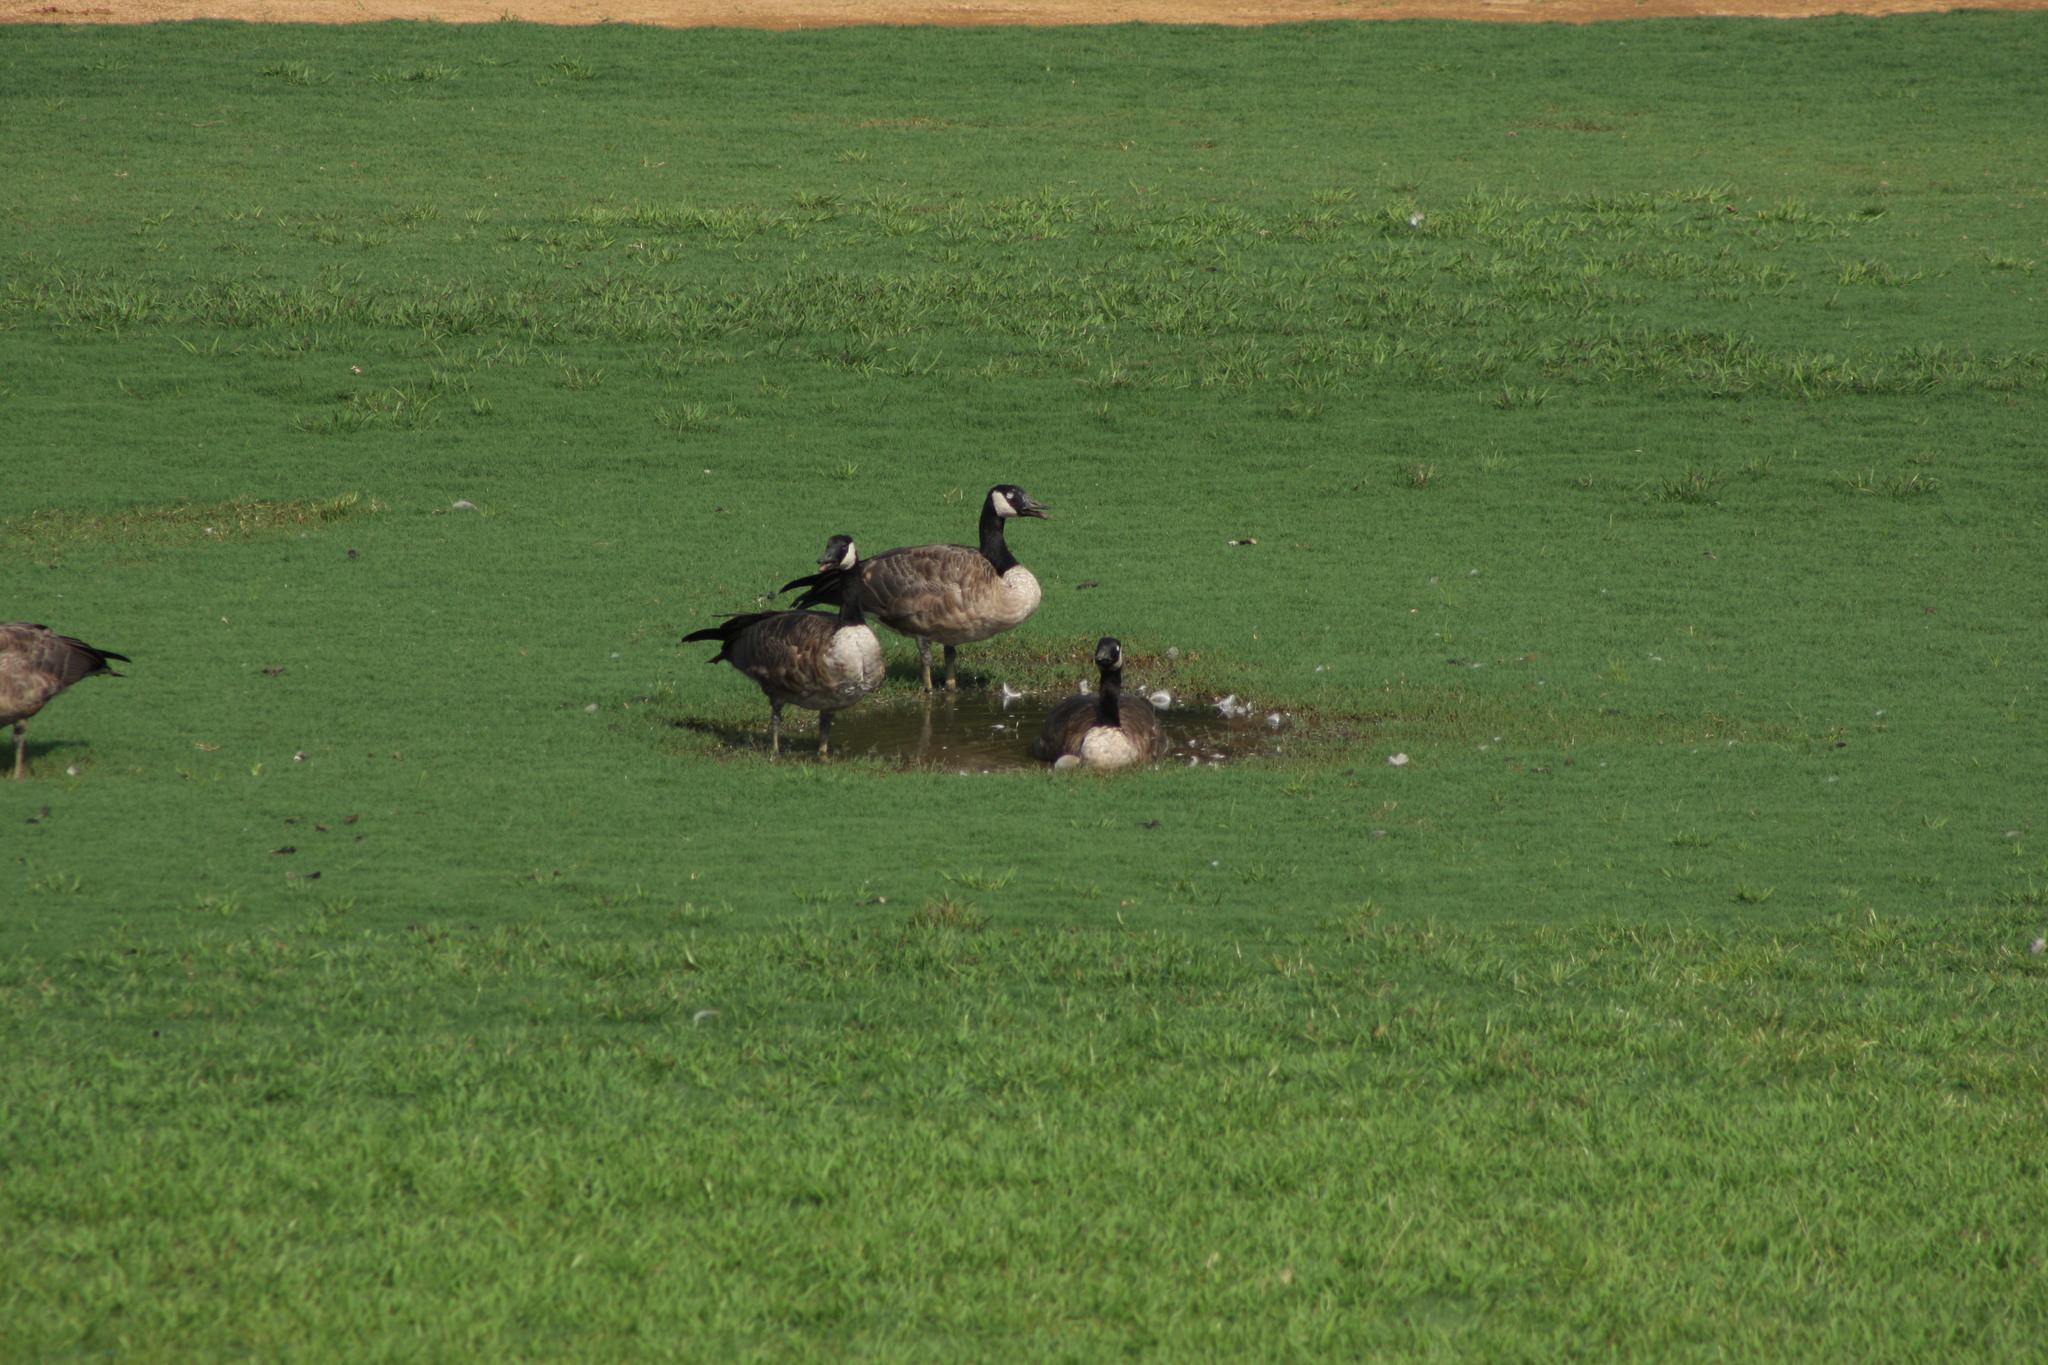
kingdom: Animalia
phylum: Chordata
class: Aves
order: Anseriformes
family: Anatidae
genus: Branta
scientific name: Branta canadensis
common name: Canada goose
